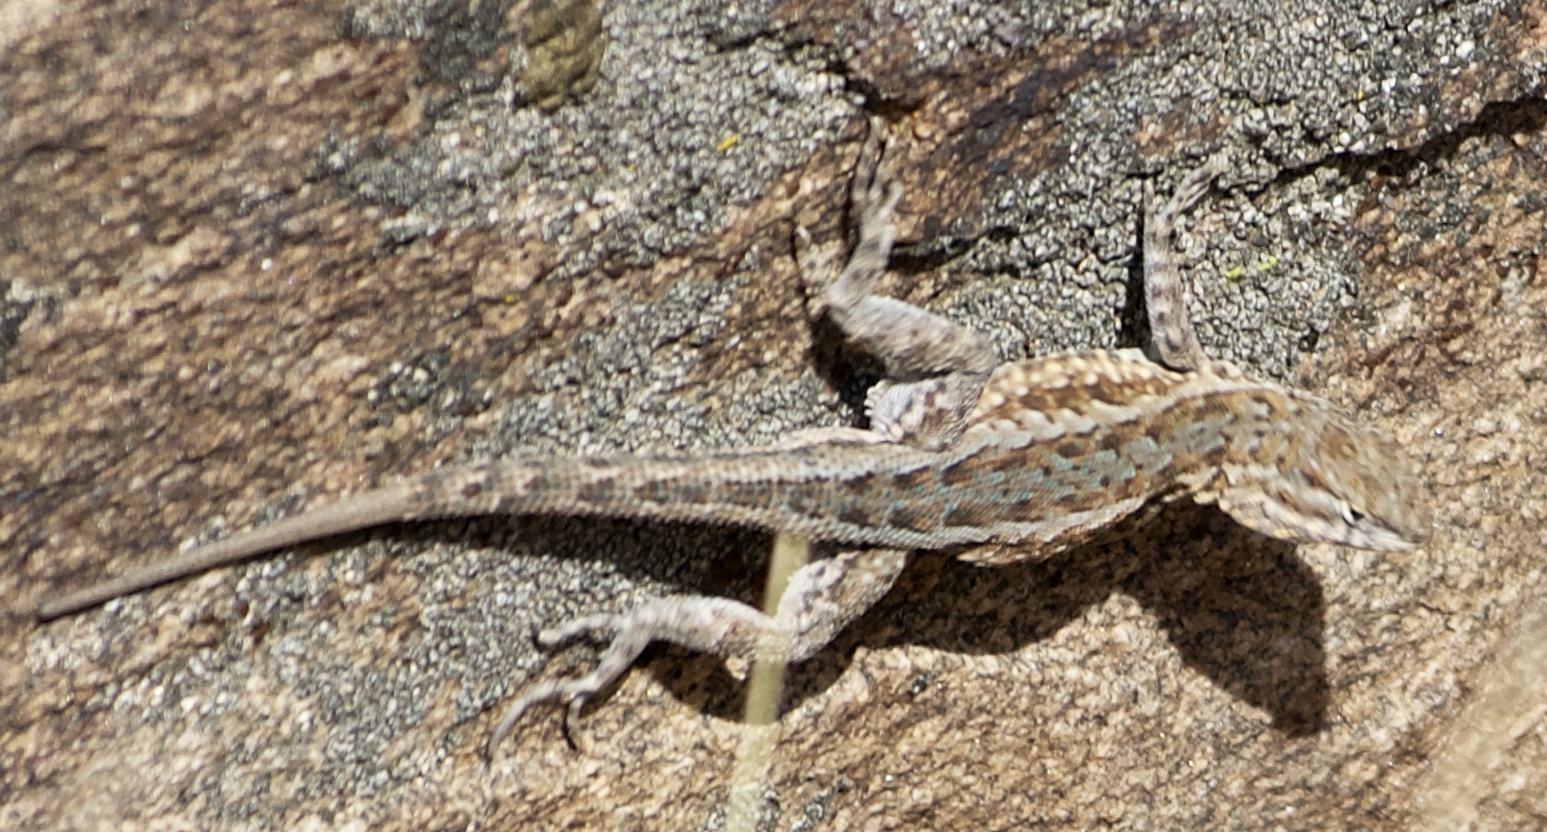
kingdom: Animalia
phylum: Chordata
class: Squamata
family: Phrynosomatidae
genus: Uta
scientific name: Uta stansburiana
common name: Side-blotched lizard
